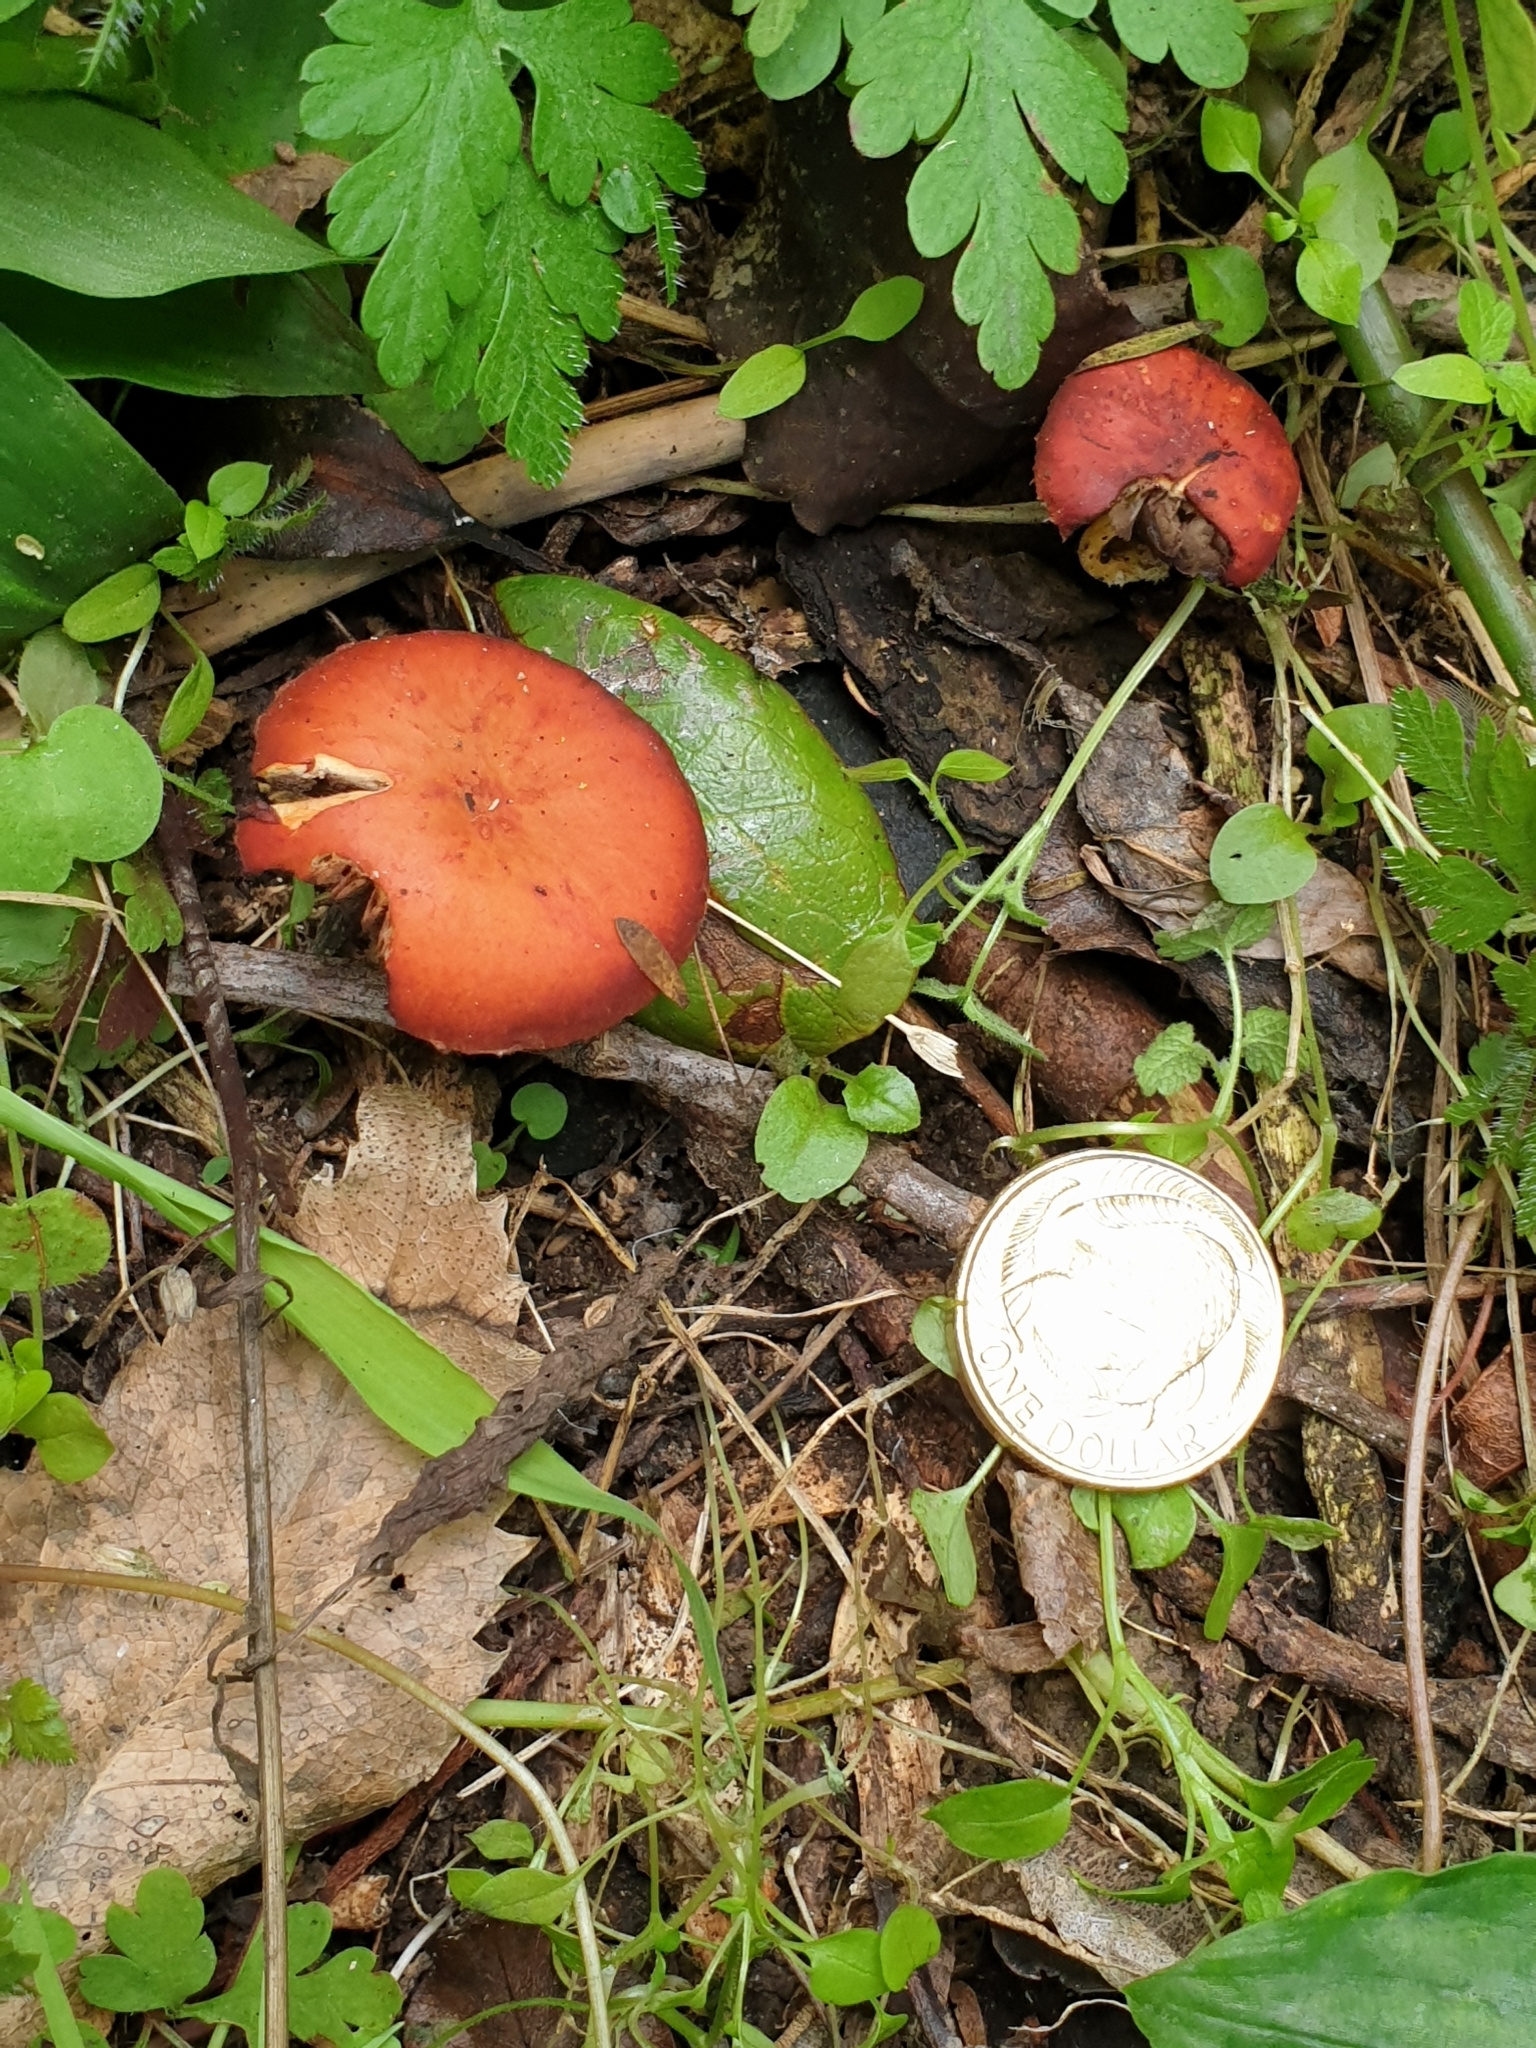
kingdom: Fungi
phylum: Basidiomycota
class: Agaricomycetes
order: Agaricales
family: Strophariaceae
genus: Leratiomyces
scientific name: Leratiomyces ceres
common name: Redlead roundhead
